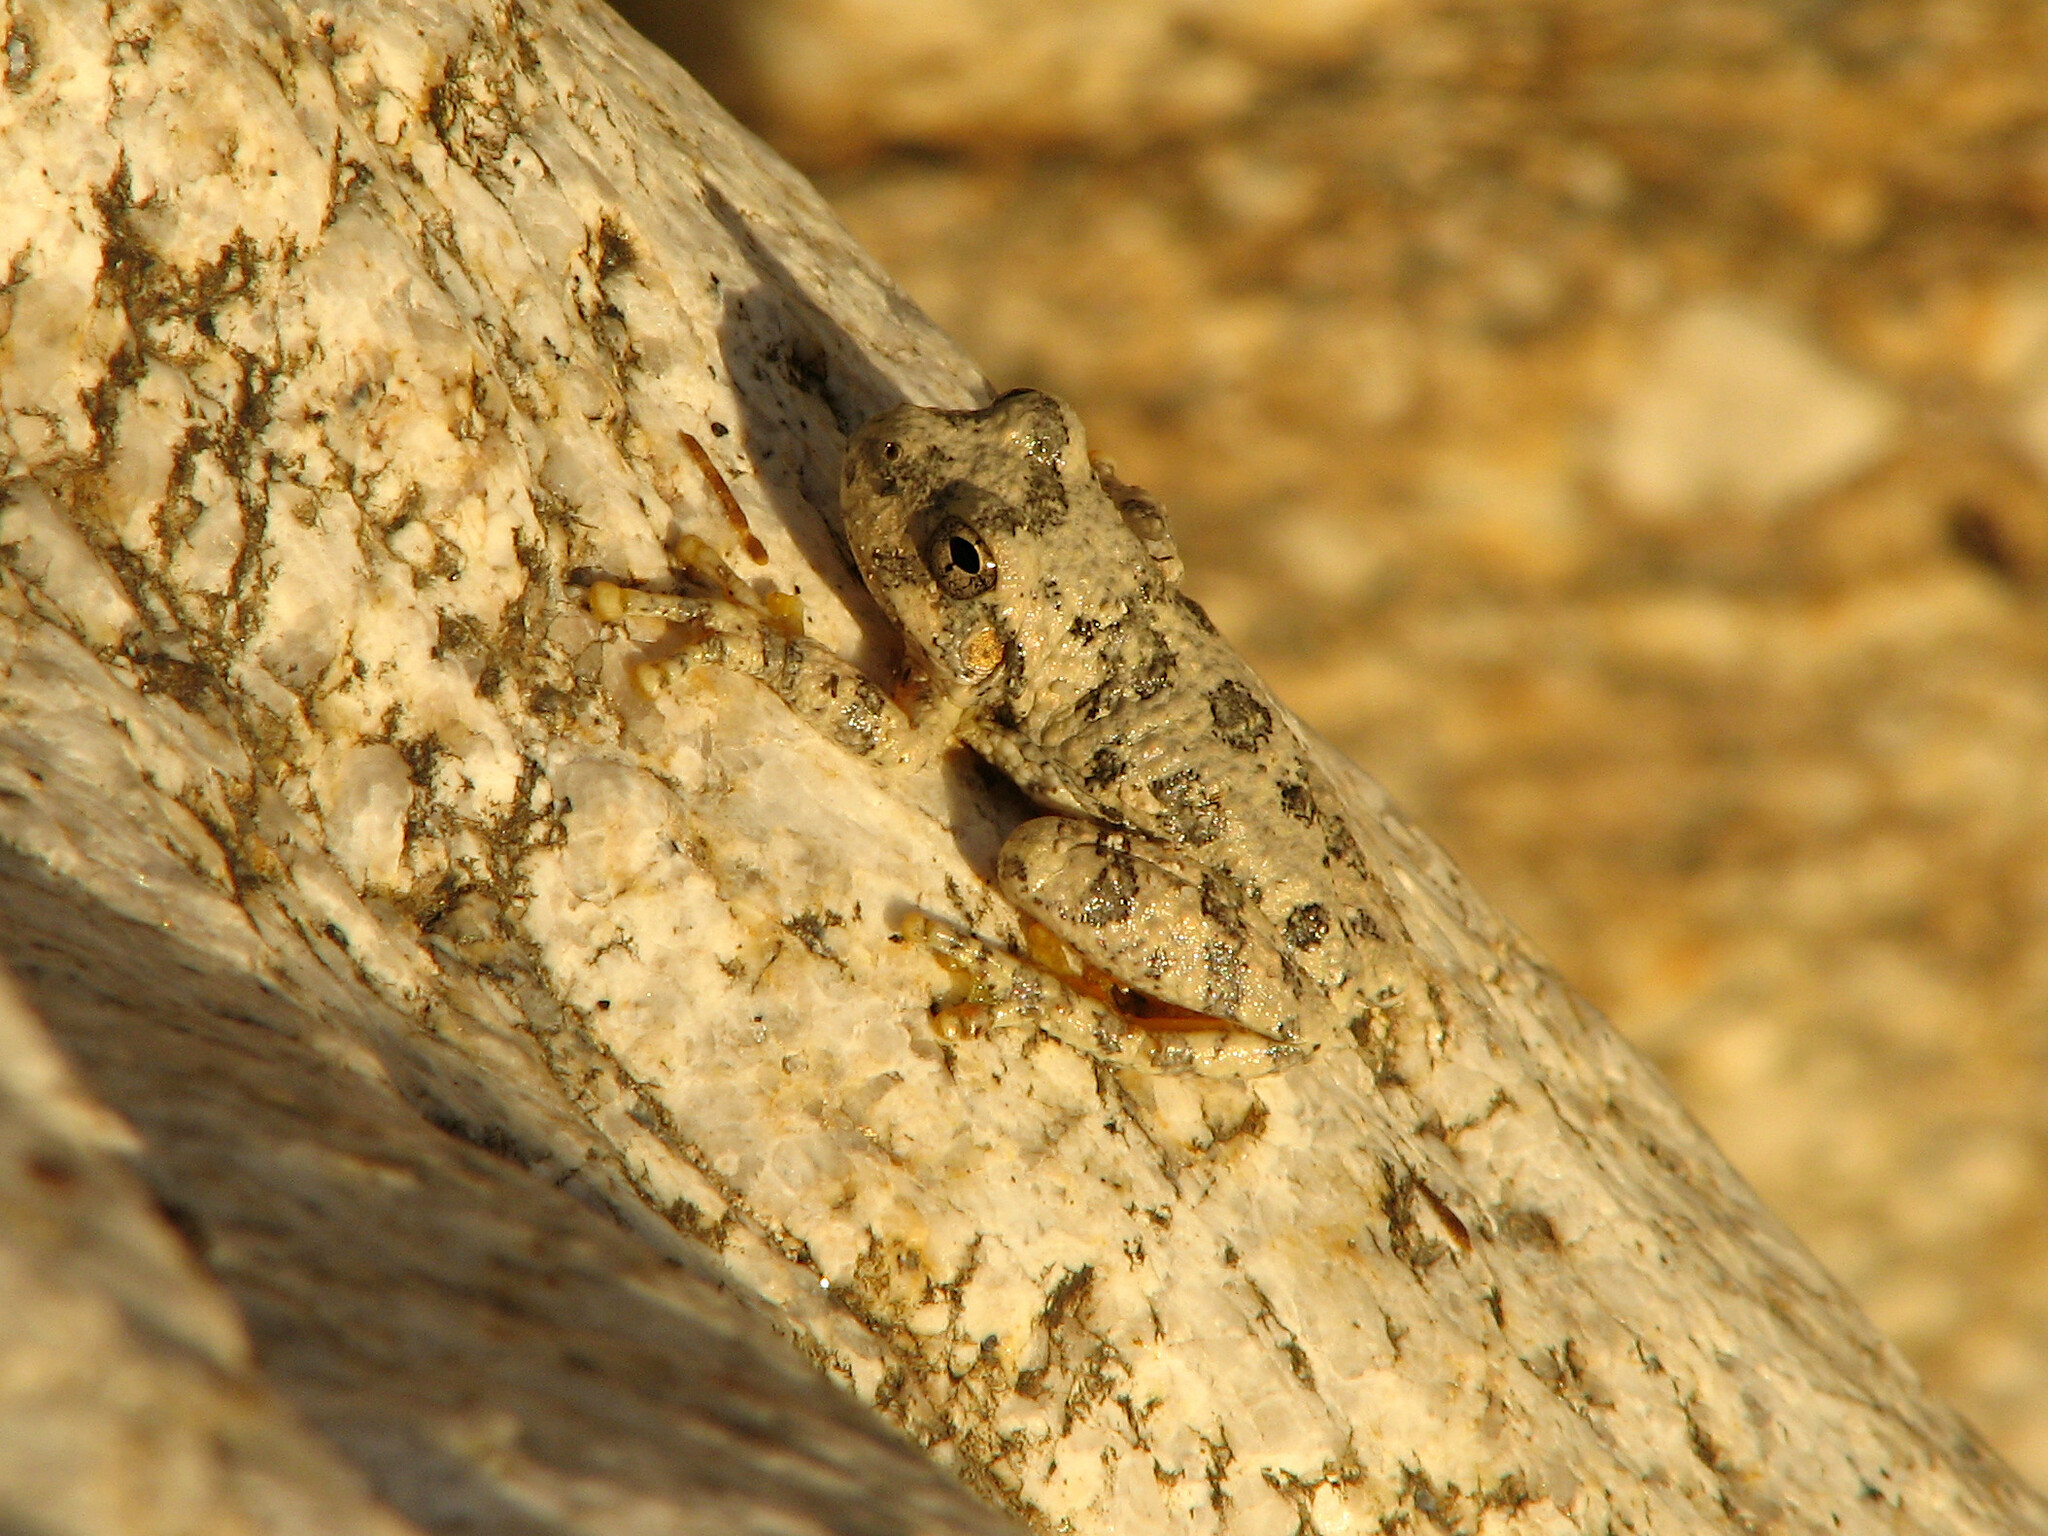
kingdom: Animalia
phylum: Chordata
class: Amphibia
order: Anura
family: Hylidae
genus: Dryophytes
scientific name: Dryophytes arenicolor
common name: Canyon treefrog
